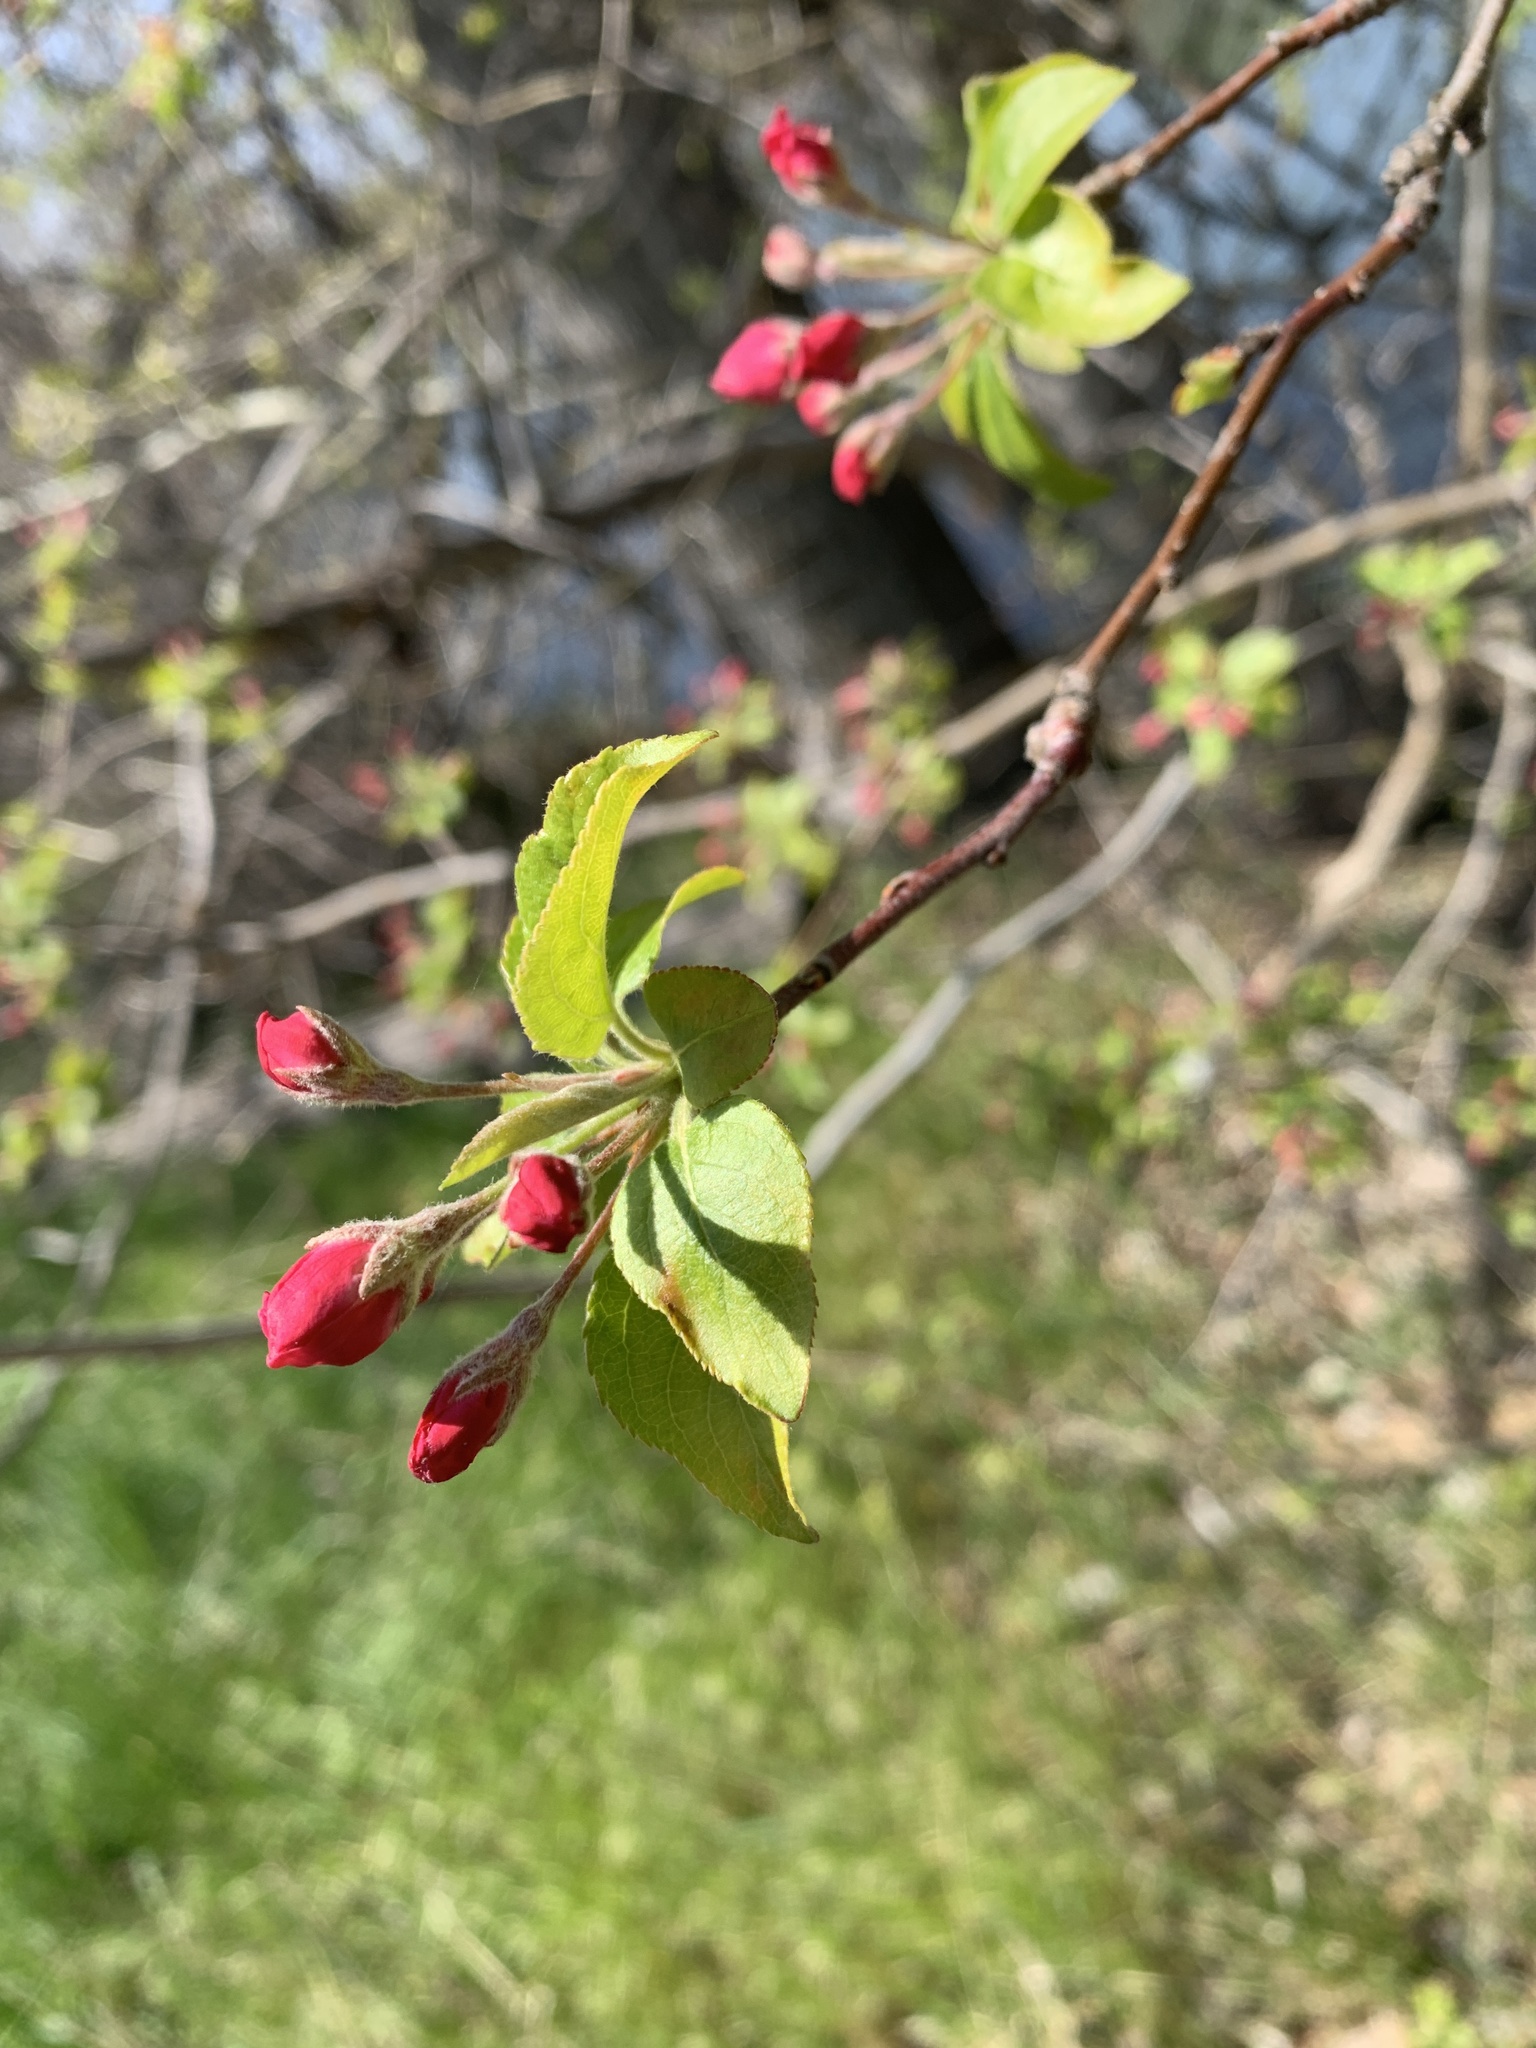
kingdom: Plantae
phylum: Tracheophyta
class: Magnoliopsida
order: Rosales
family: Rosaceae
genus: Malus
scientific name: Malus domestica
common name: Apple
